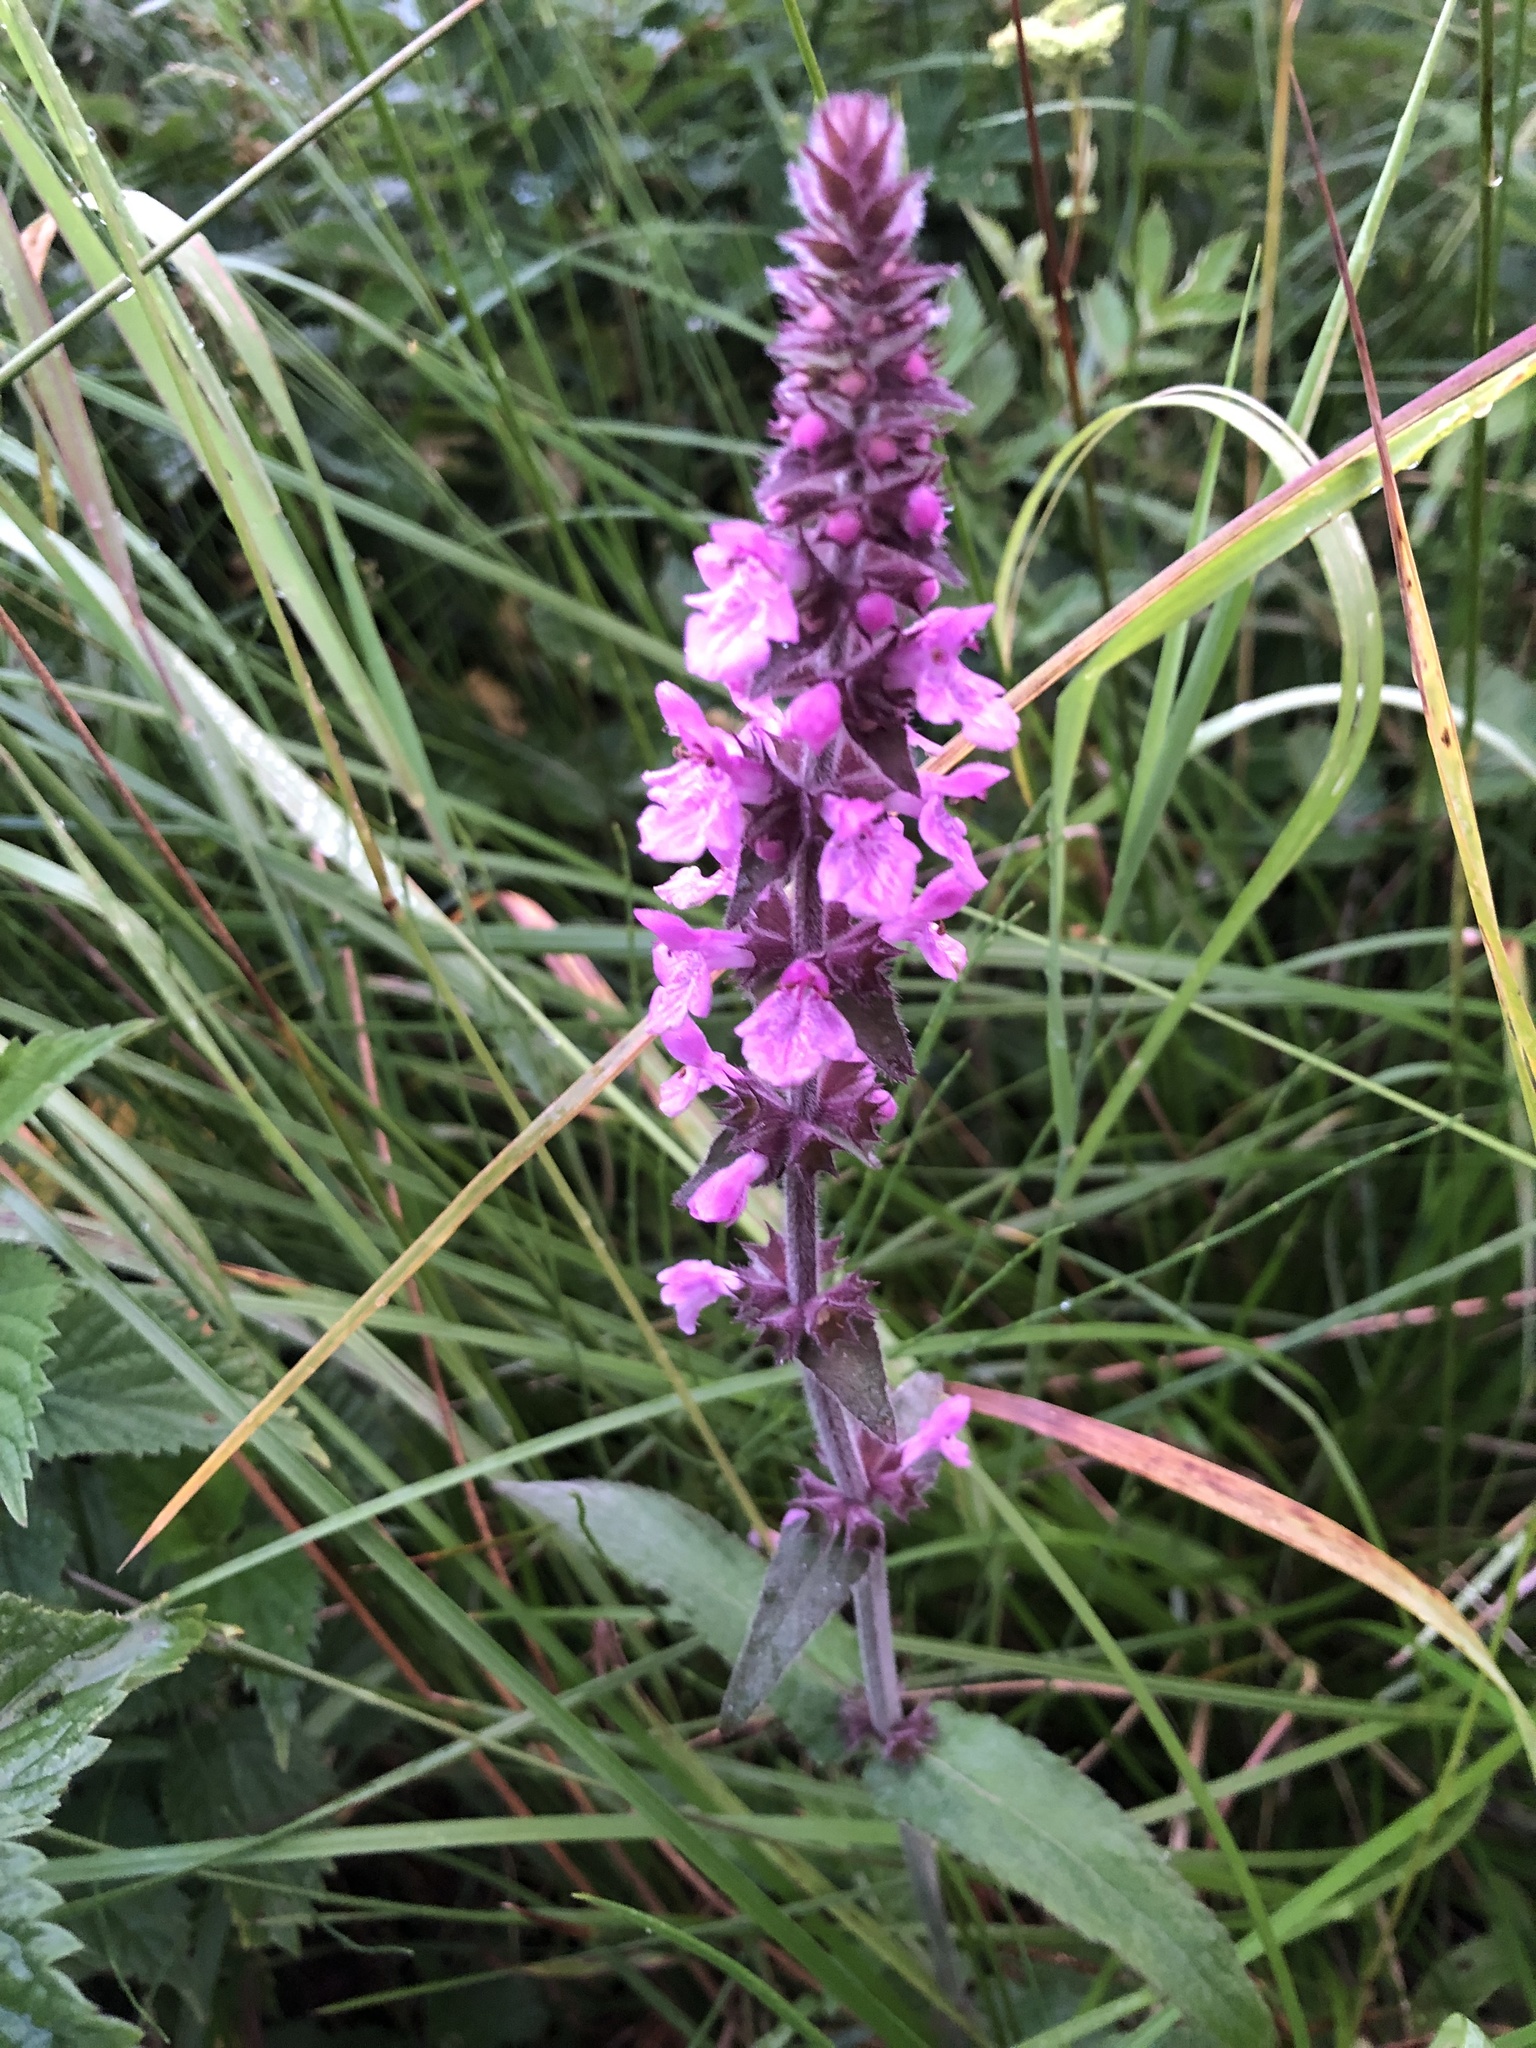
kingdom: Plantae
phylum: Tracheophyta
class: Magnoliopsida
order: Lamiales
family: Lamiaceae
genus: Stachys
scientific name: Stachys palustris
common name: Marsh woundwort
